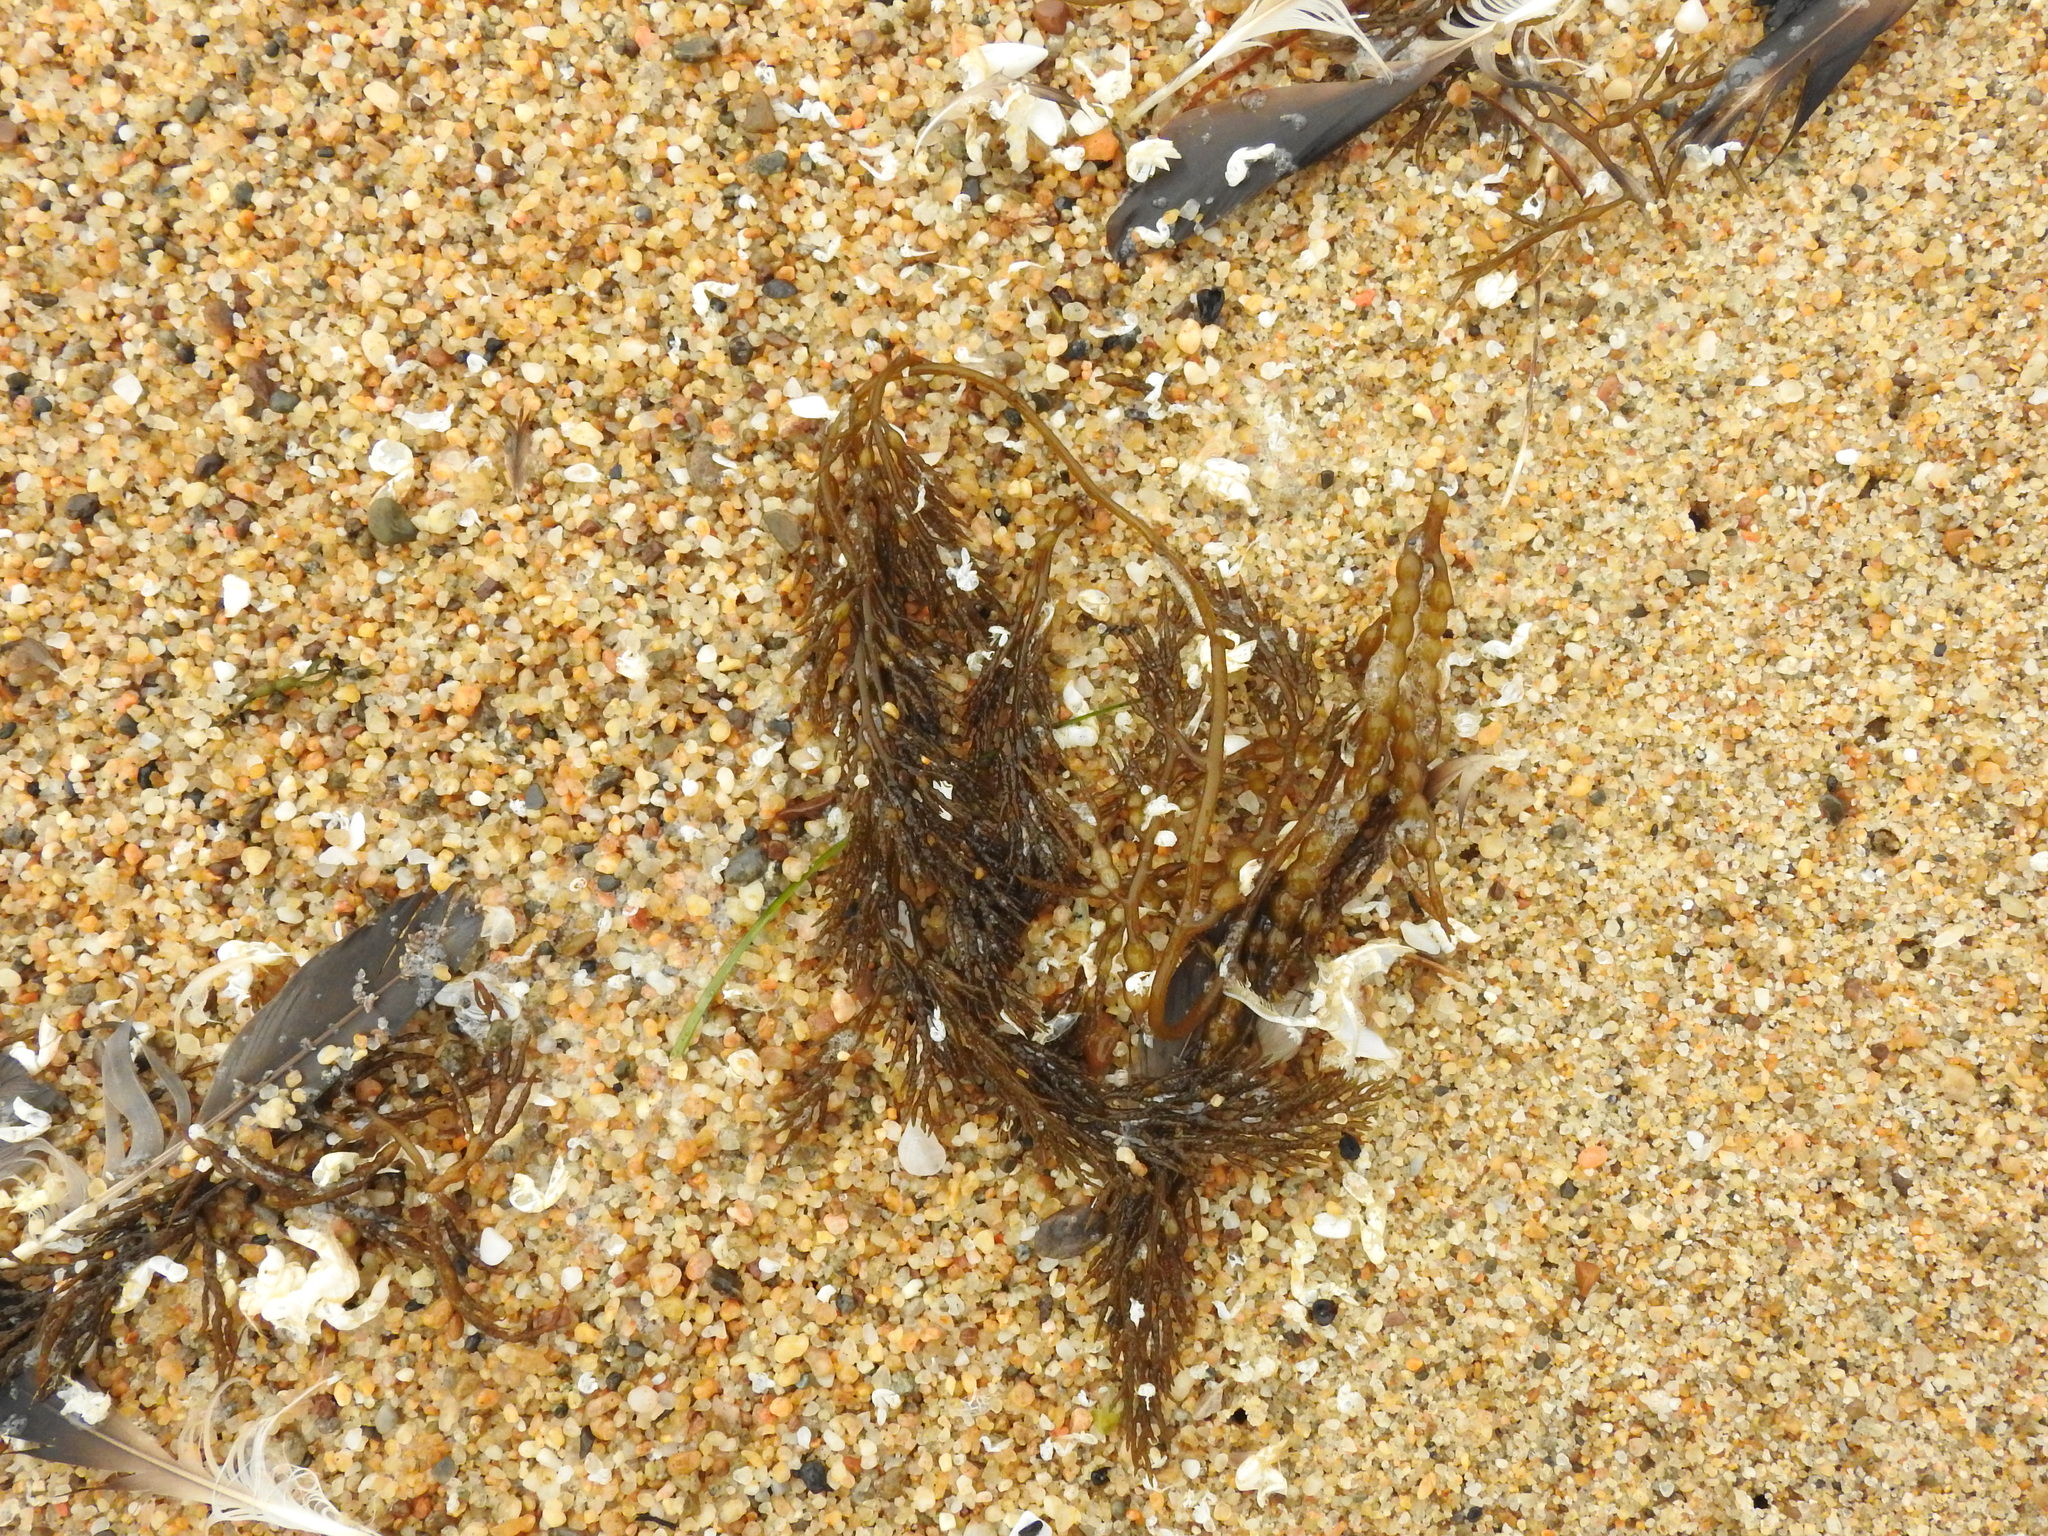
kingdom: Chromista
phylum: Ochrophyta
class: Phaeophyceae
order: Fucales
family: Sargassaceae
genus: Stephanocystis
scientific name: Stephanocystis
